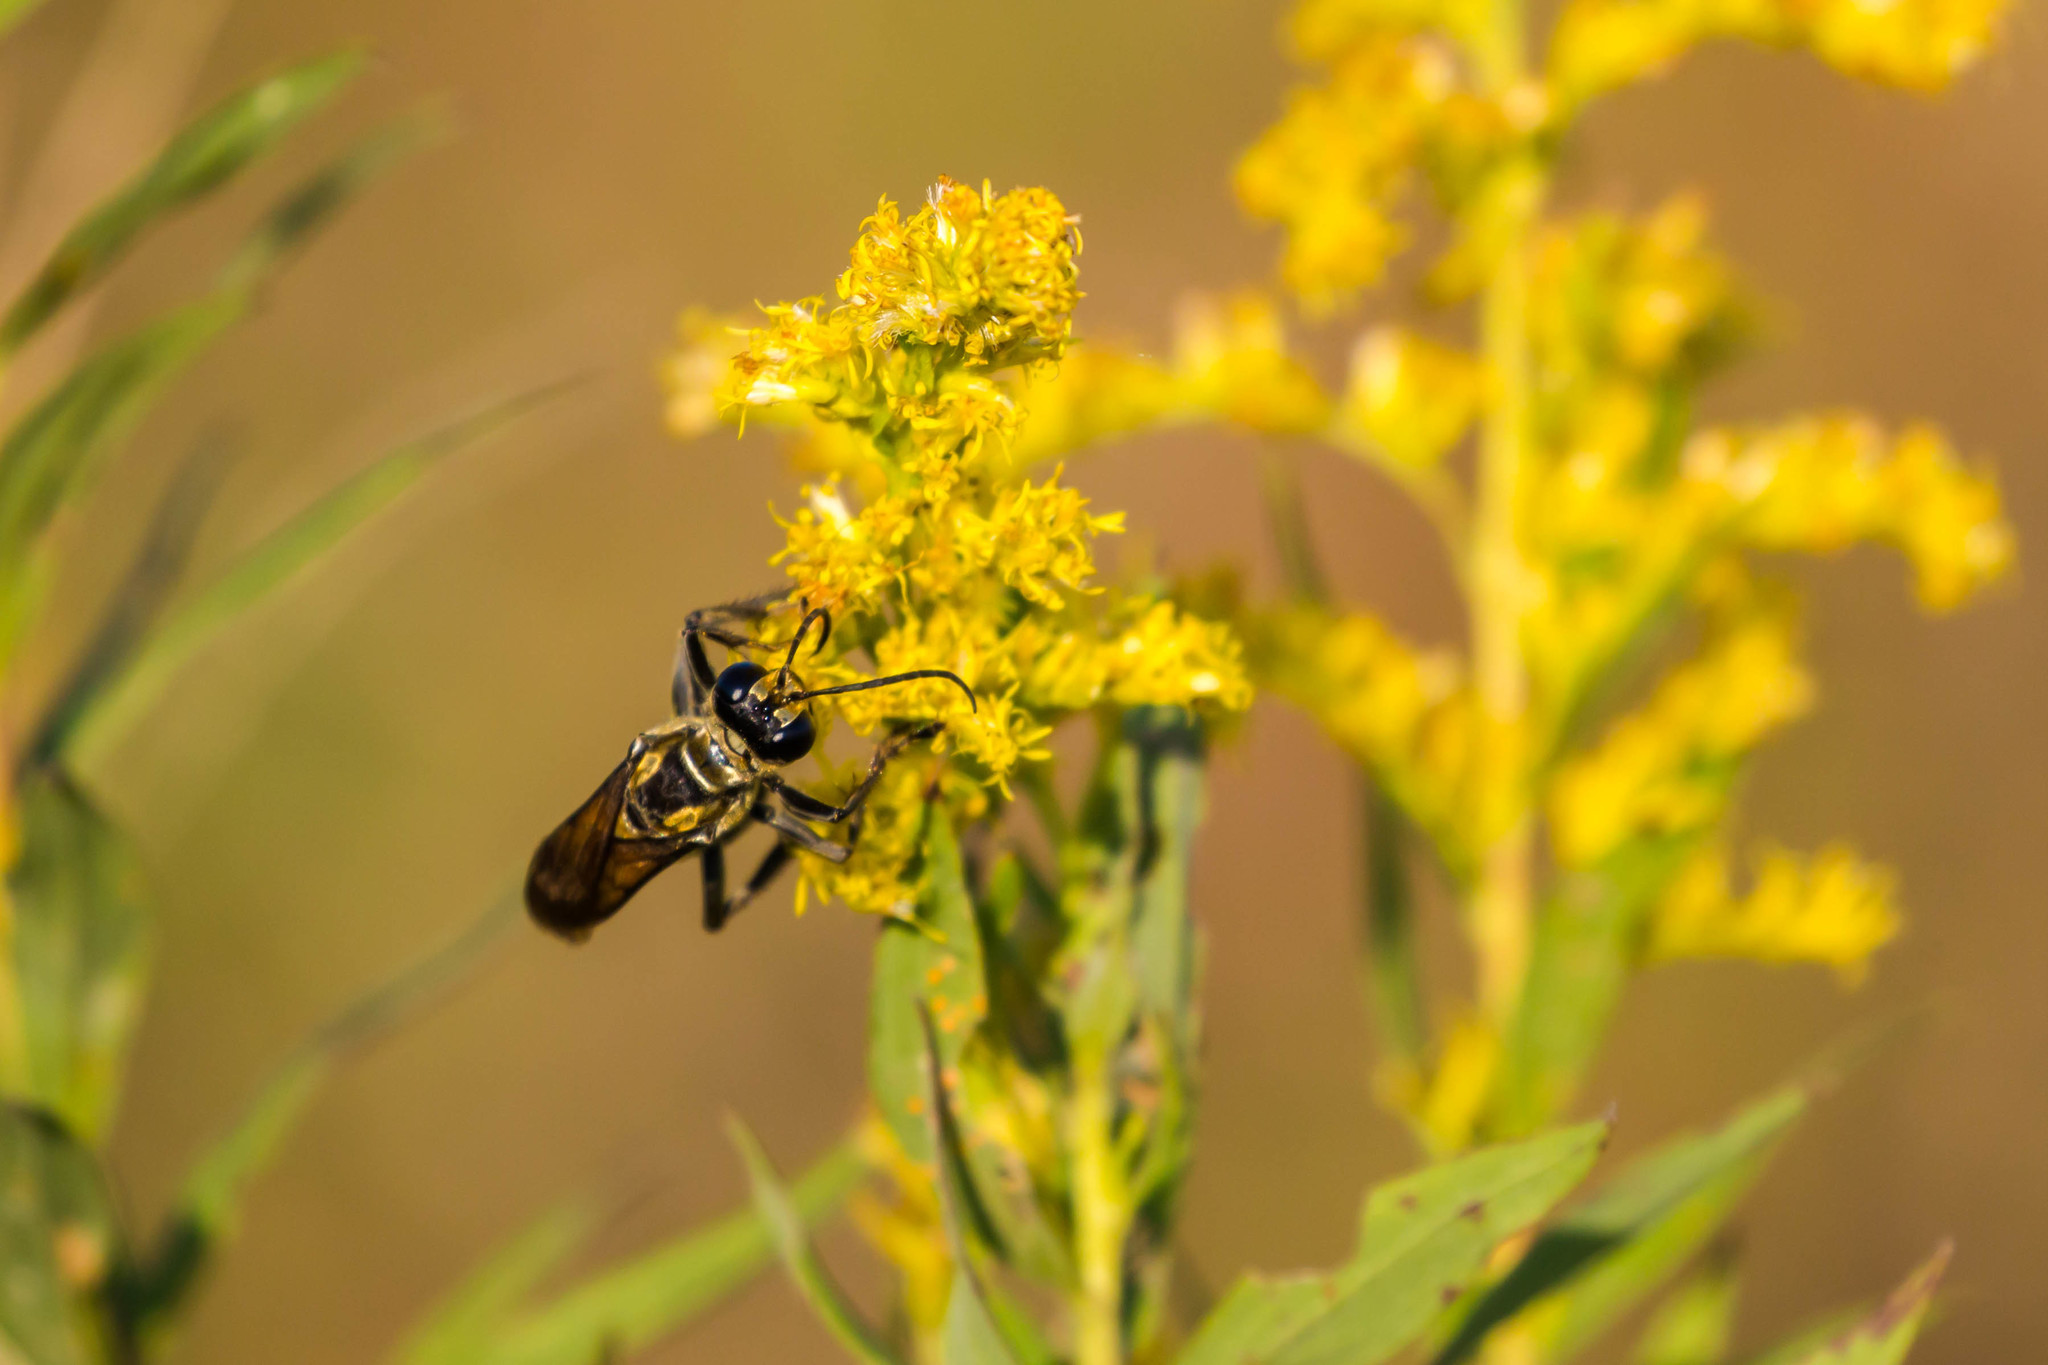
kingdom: Animalia
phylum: Arthropoda
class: Insecta
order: Hymenoptera
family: Sphecidae
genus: Sphex
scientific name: Sphex habenus
